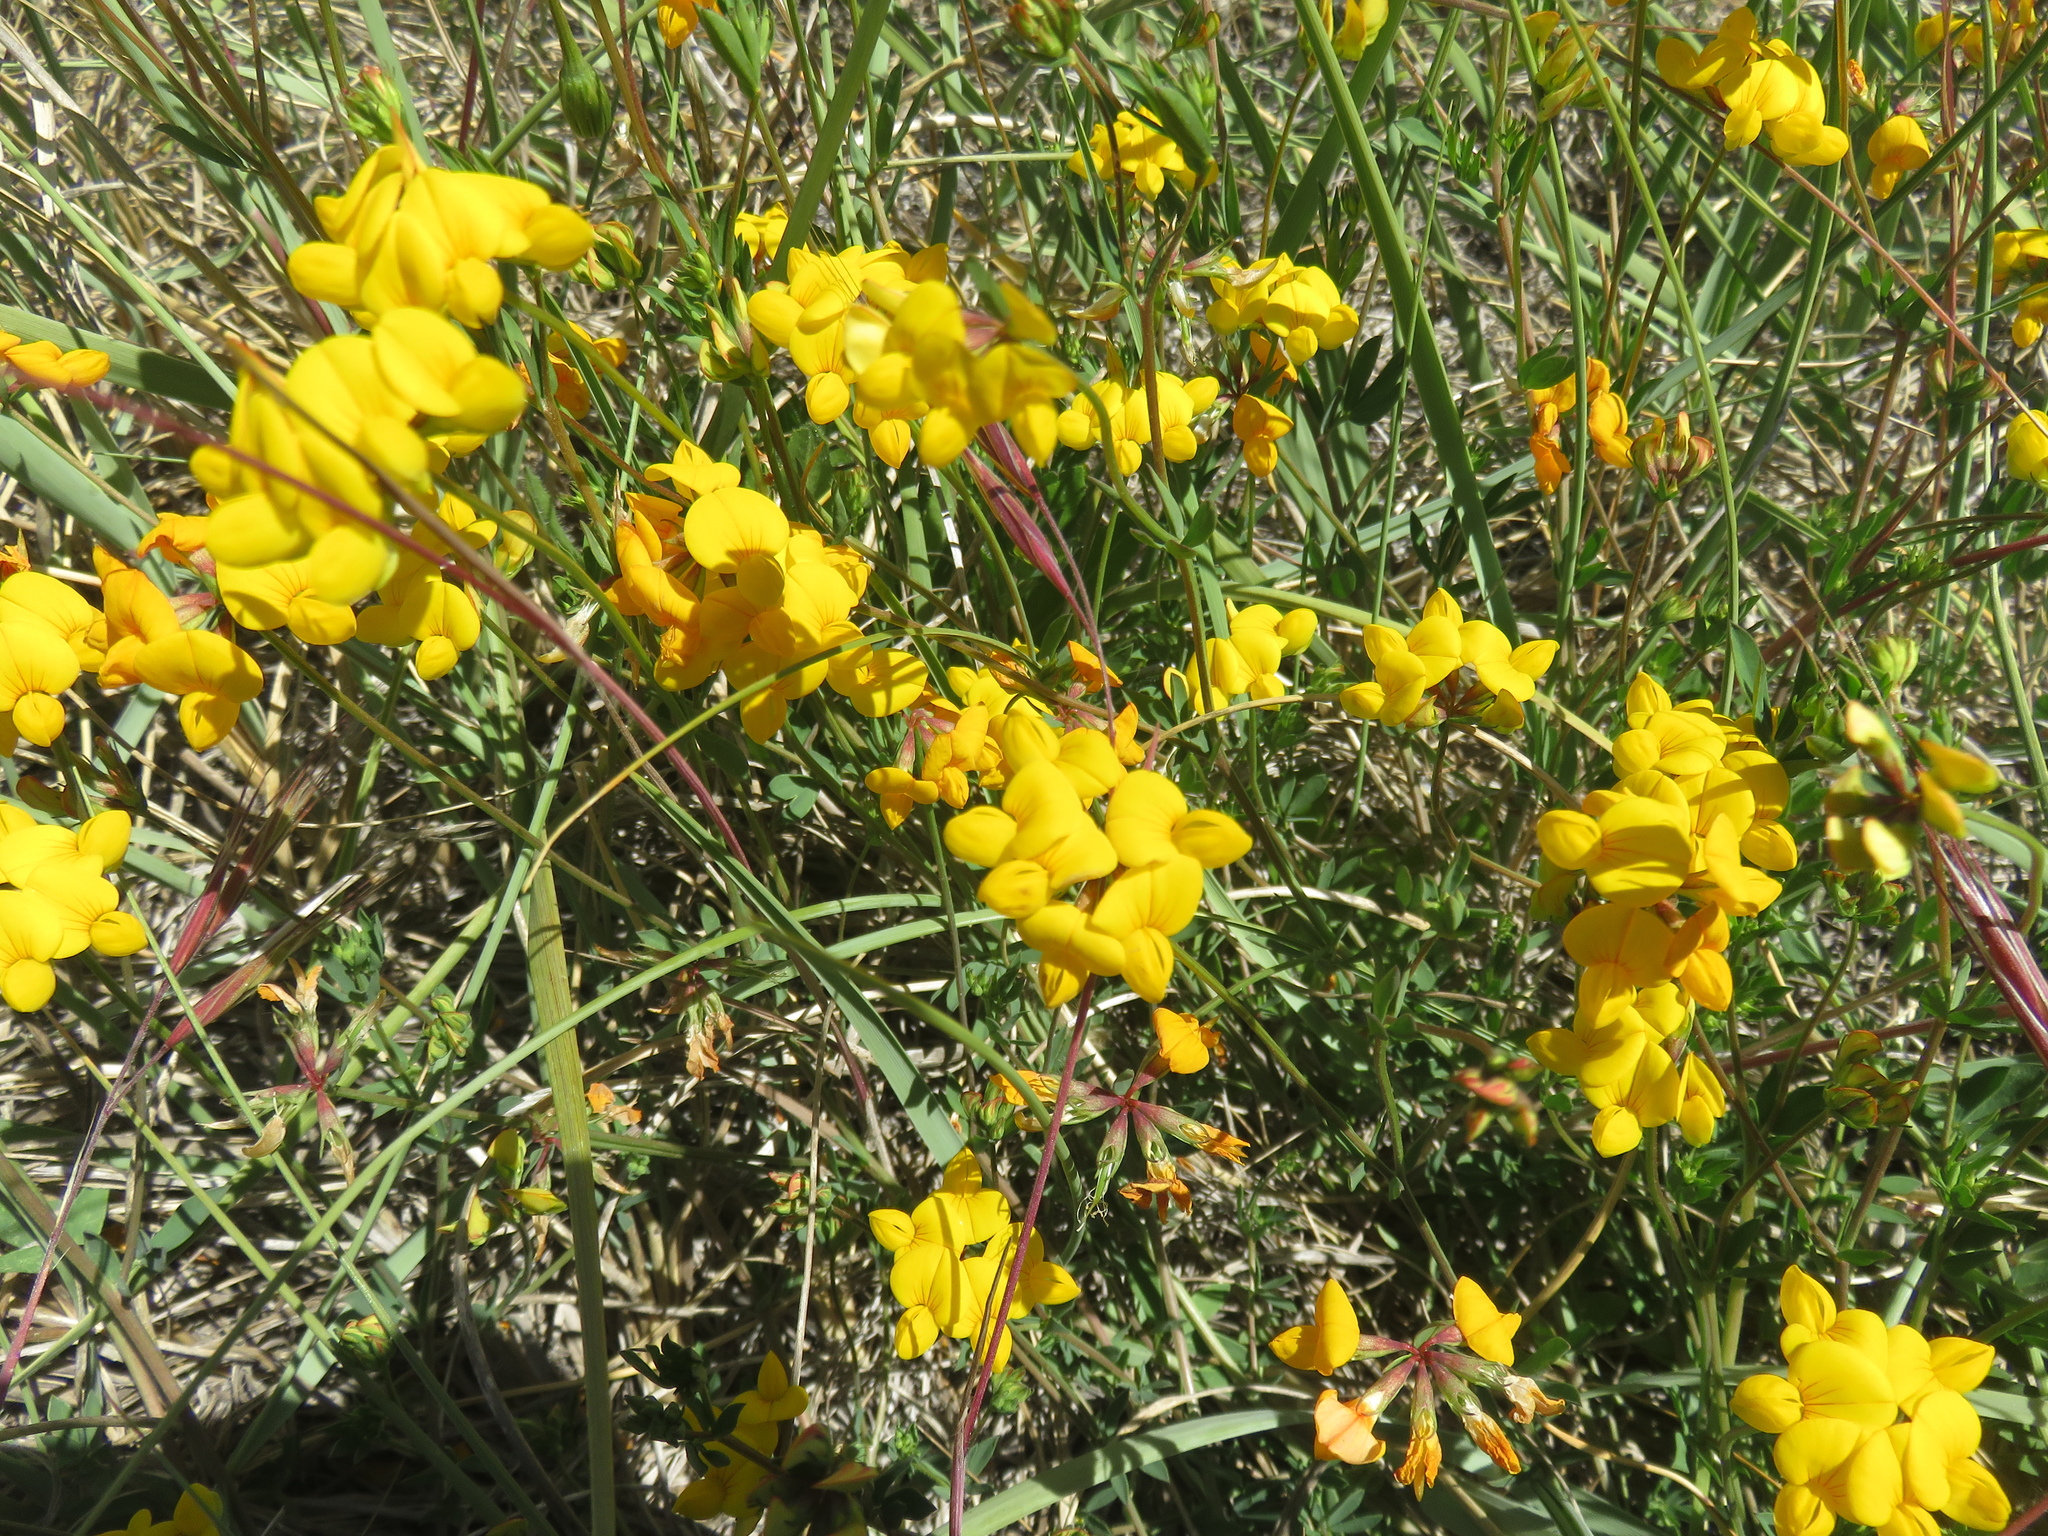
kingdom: Plantae
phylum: Tracheophyta
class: Magnoliopsida
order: Fabales
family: Fabaceae
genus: Lotus
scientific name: Lotus corniculatus
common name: Common bird's-foot-trefoil
